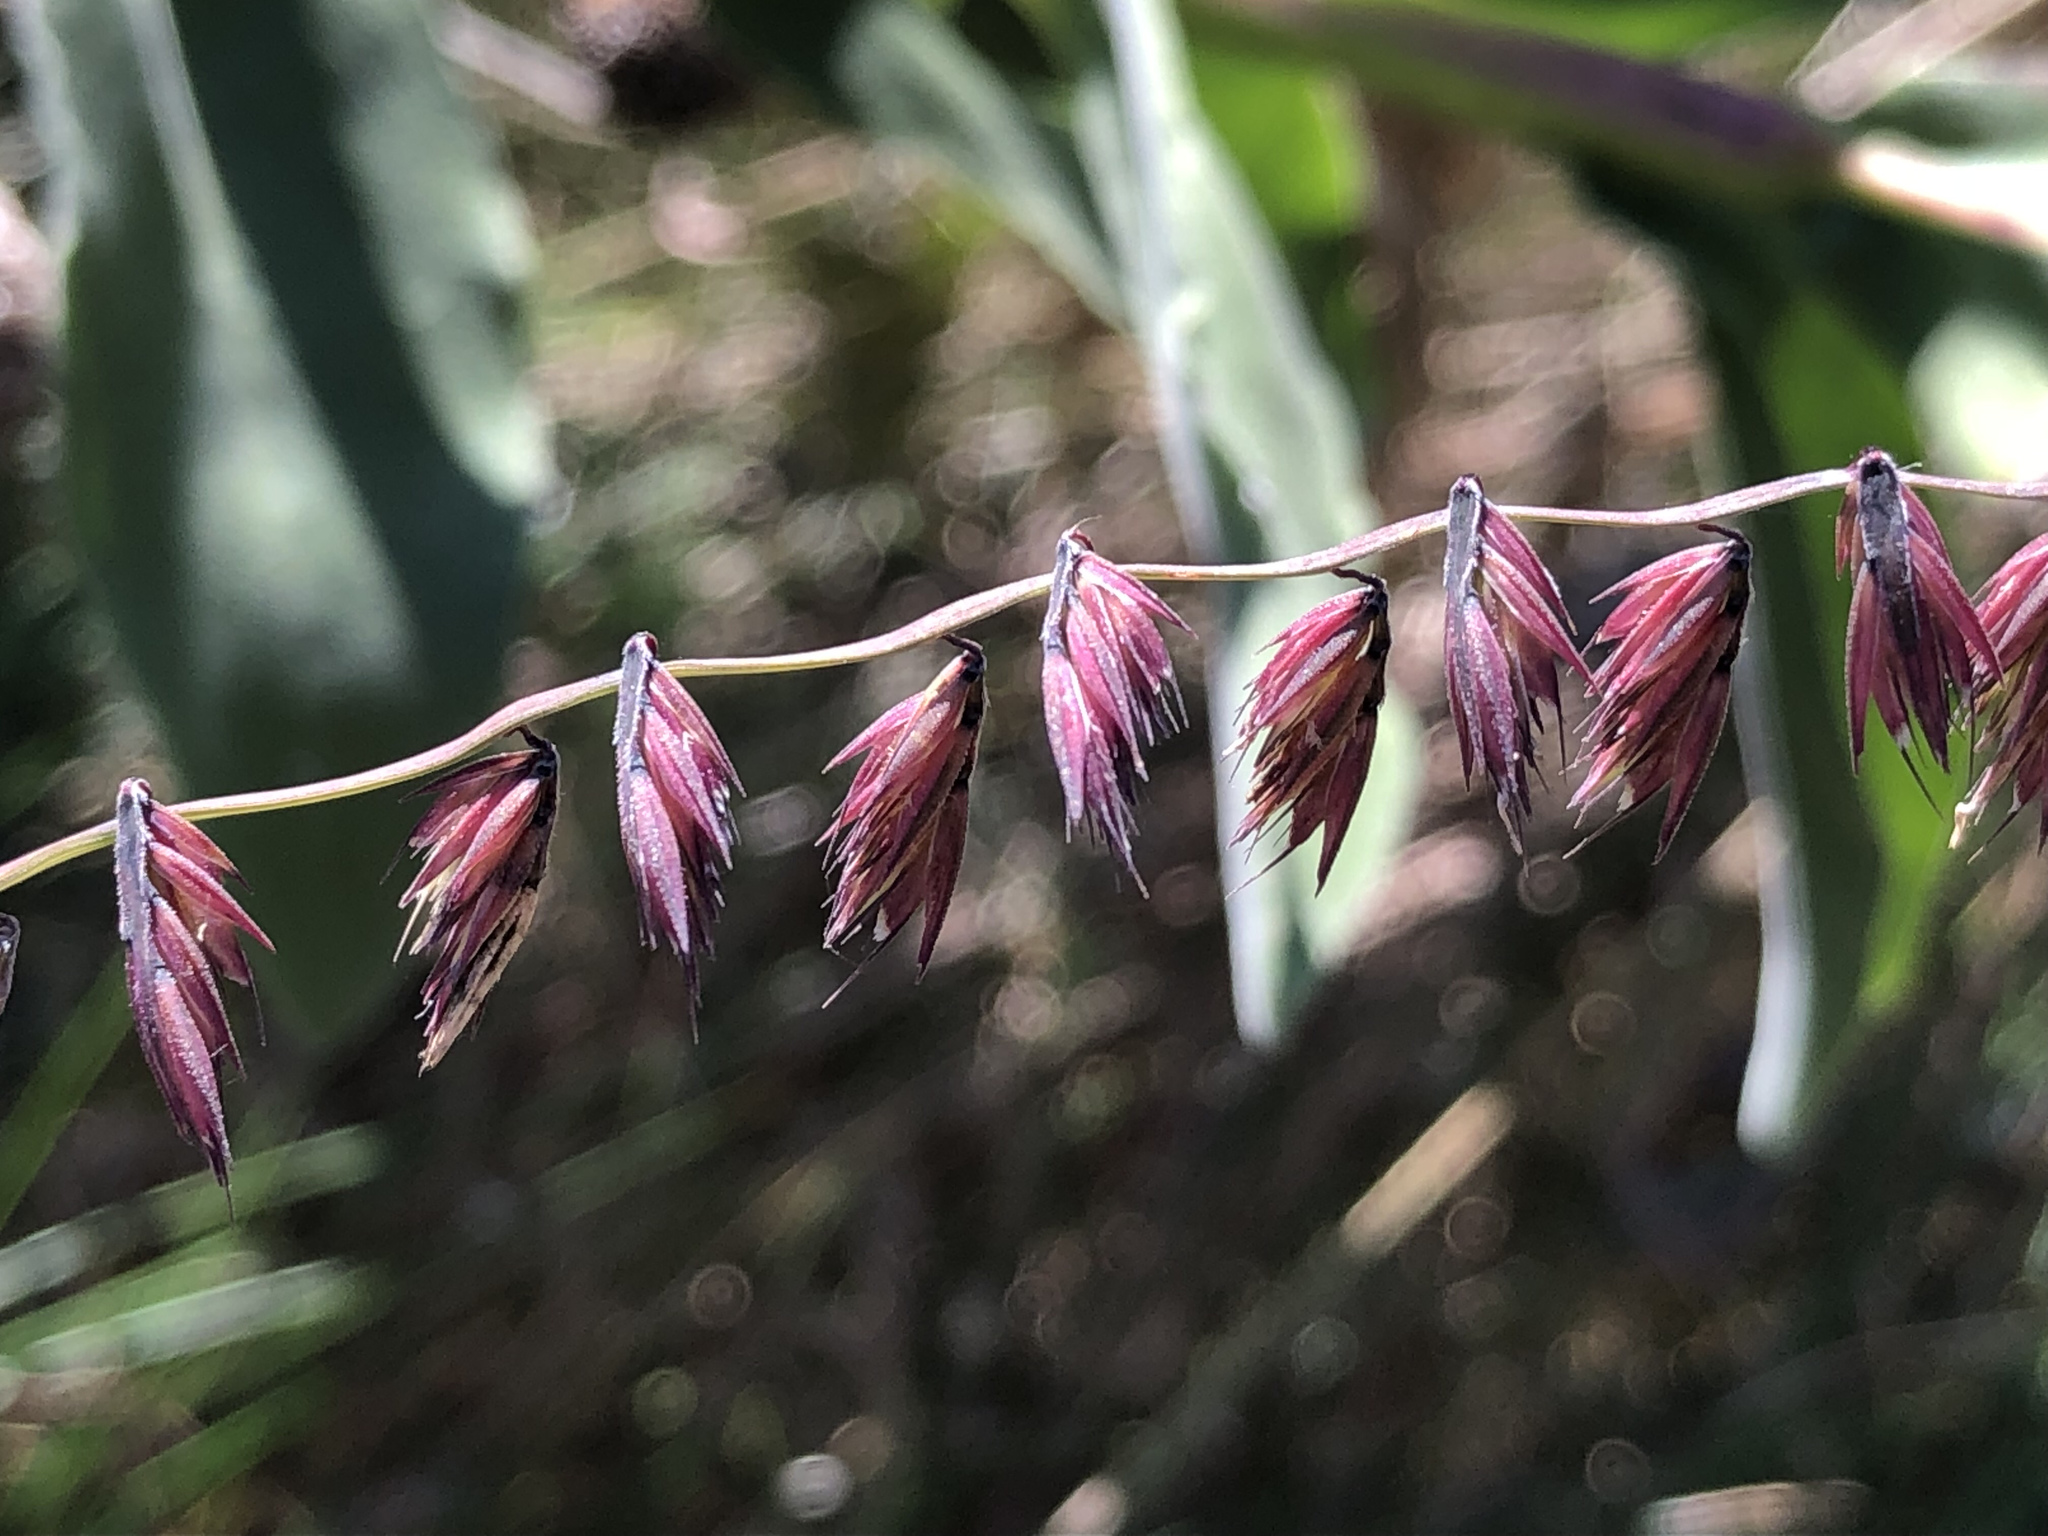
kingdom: Plantae
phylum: Tracheophyta
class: Liliopsida
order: Poales
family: Poaceae
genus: Bouteloua
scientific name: Bouteloua curtipendula
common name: Side-oats grama
